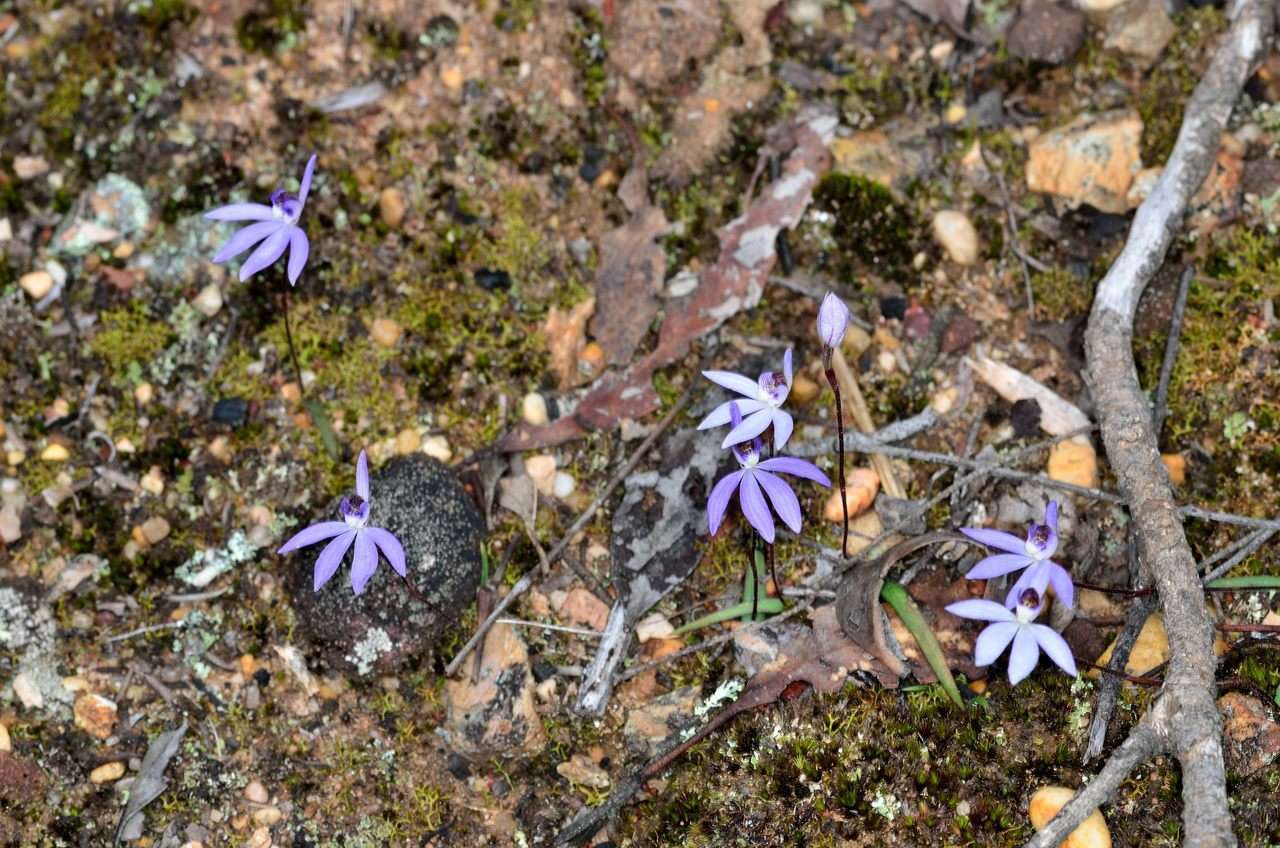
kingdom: Plantae
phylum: Tracheophyta
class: Liliopsida
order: Asparagales
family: Orchidaceae
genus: Caladenia
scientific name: Caladenia caerulea
